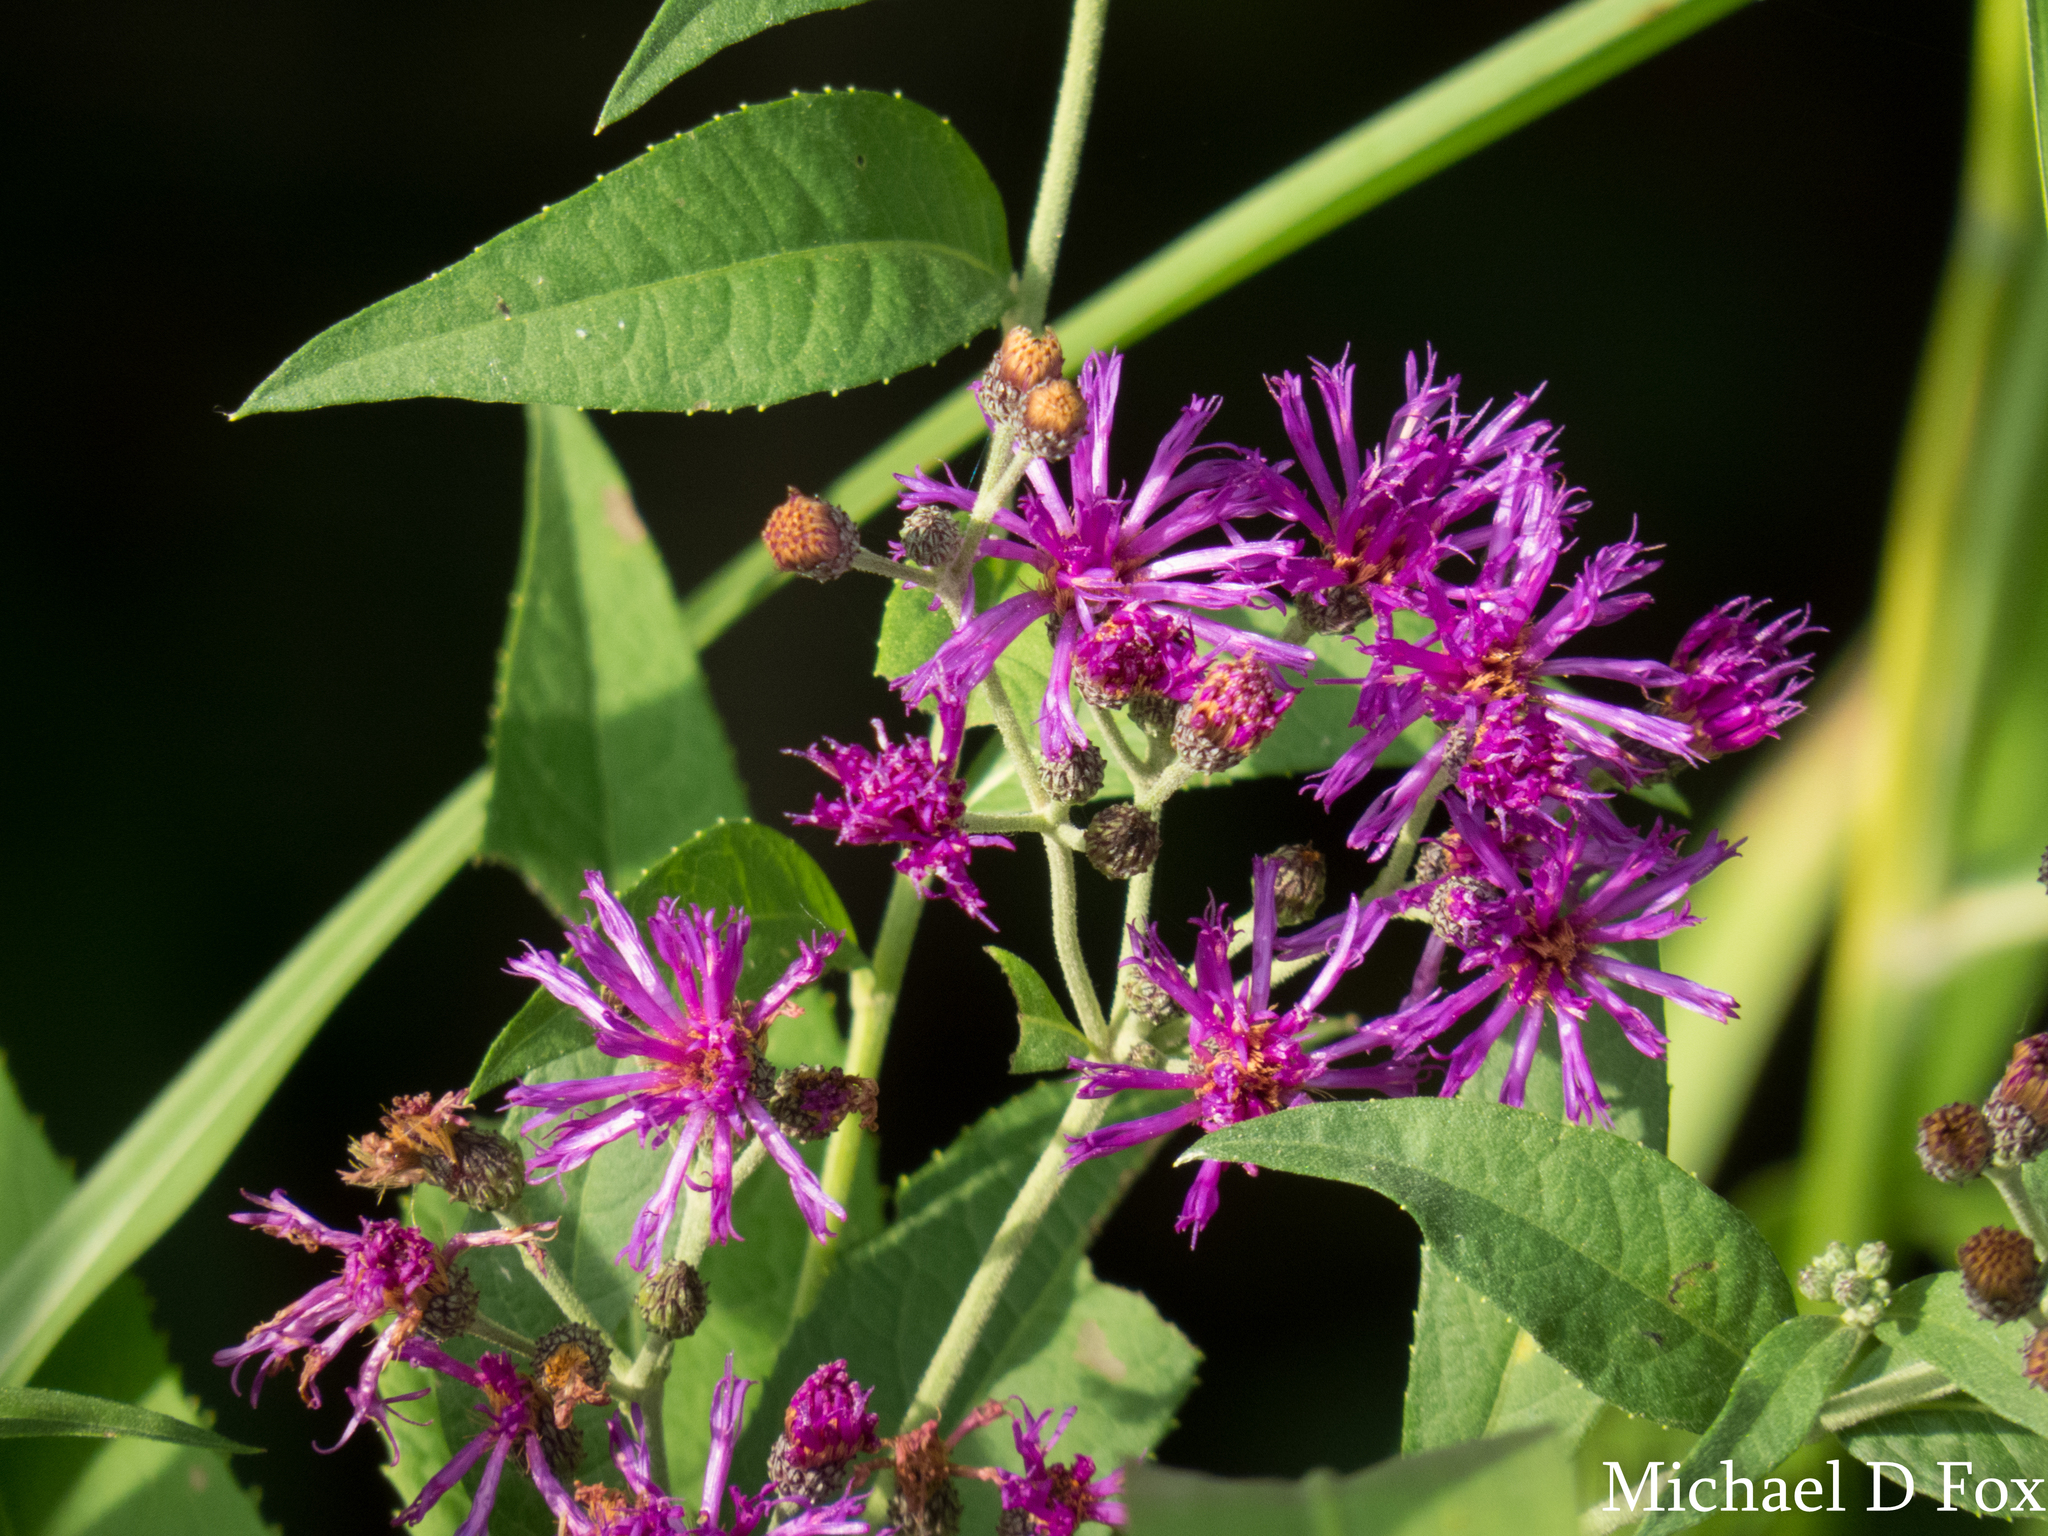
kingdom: Plantae
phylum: Tracheophyta
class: Magnoliopsida
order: Asterales
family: Asteraceae
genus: Vernonia
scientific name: Vernonia baldwinii
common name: Western ironweed
